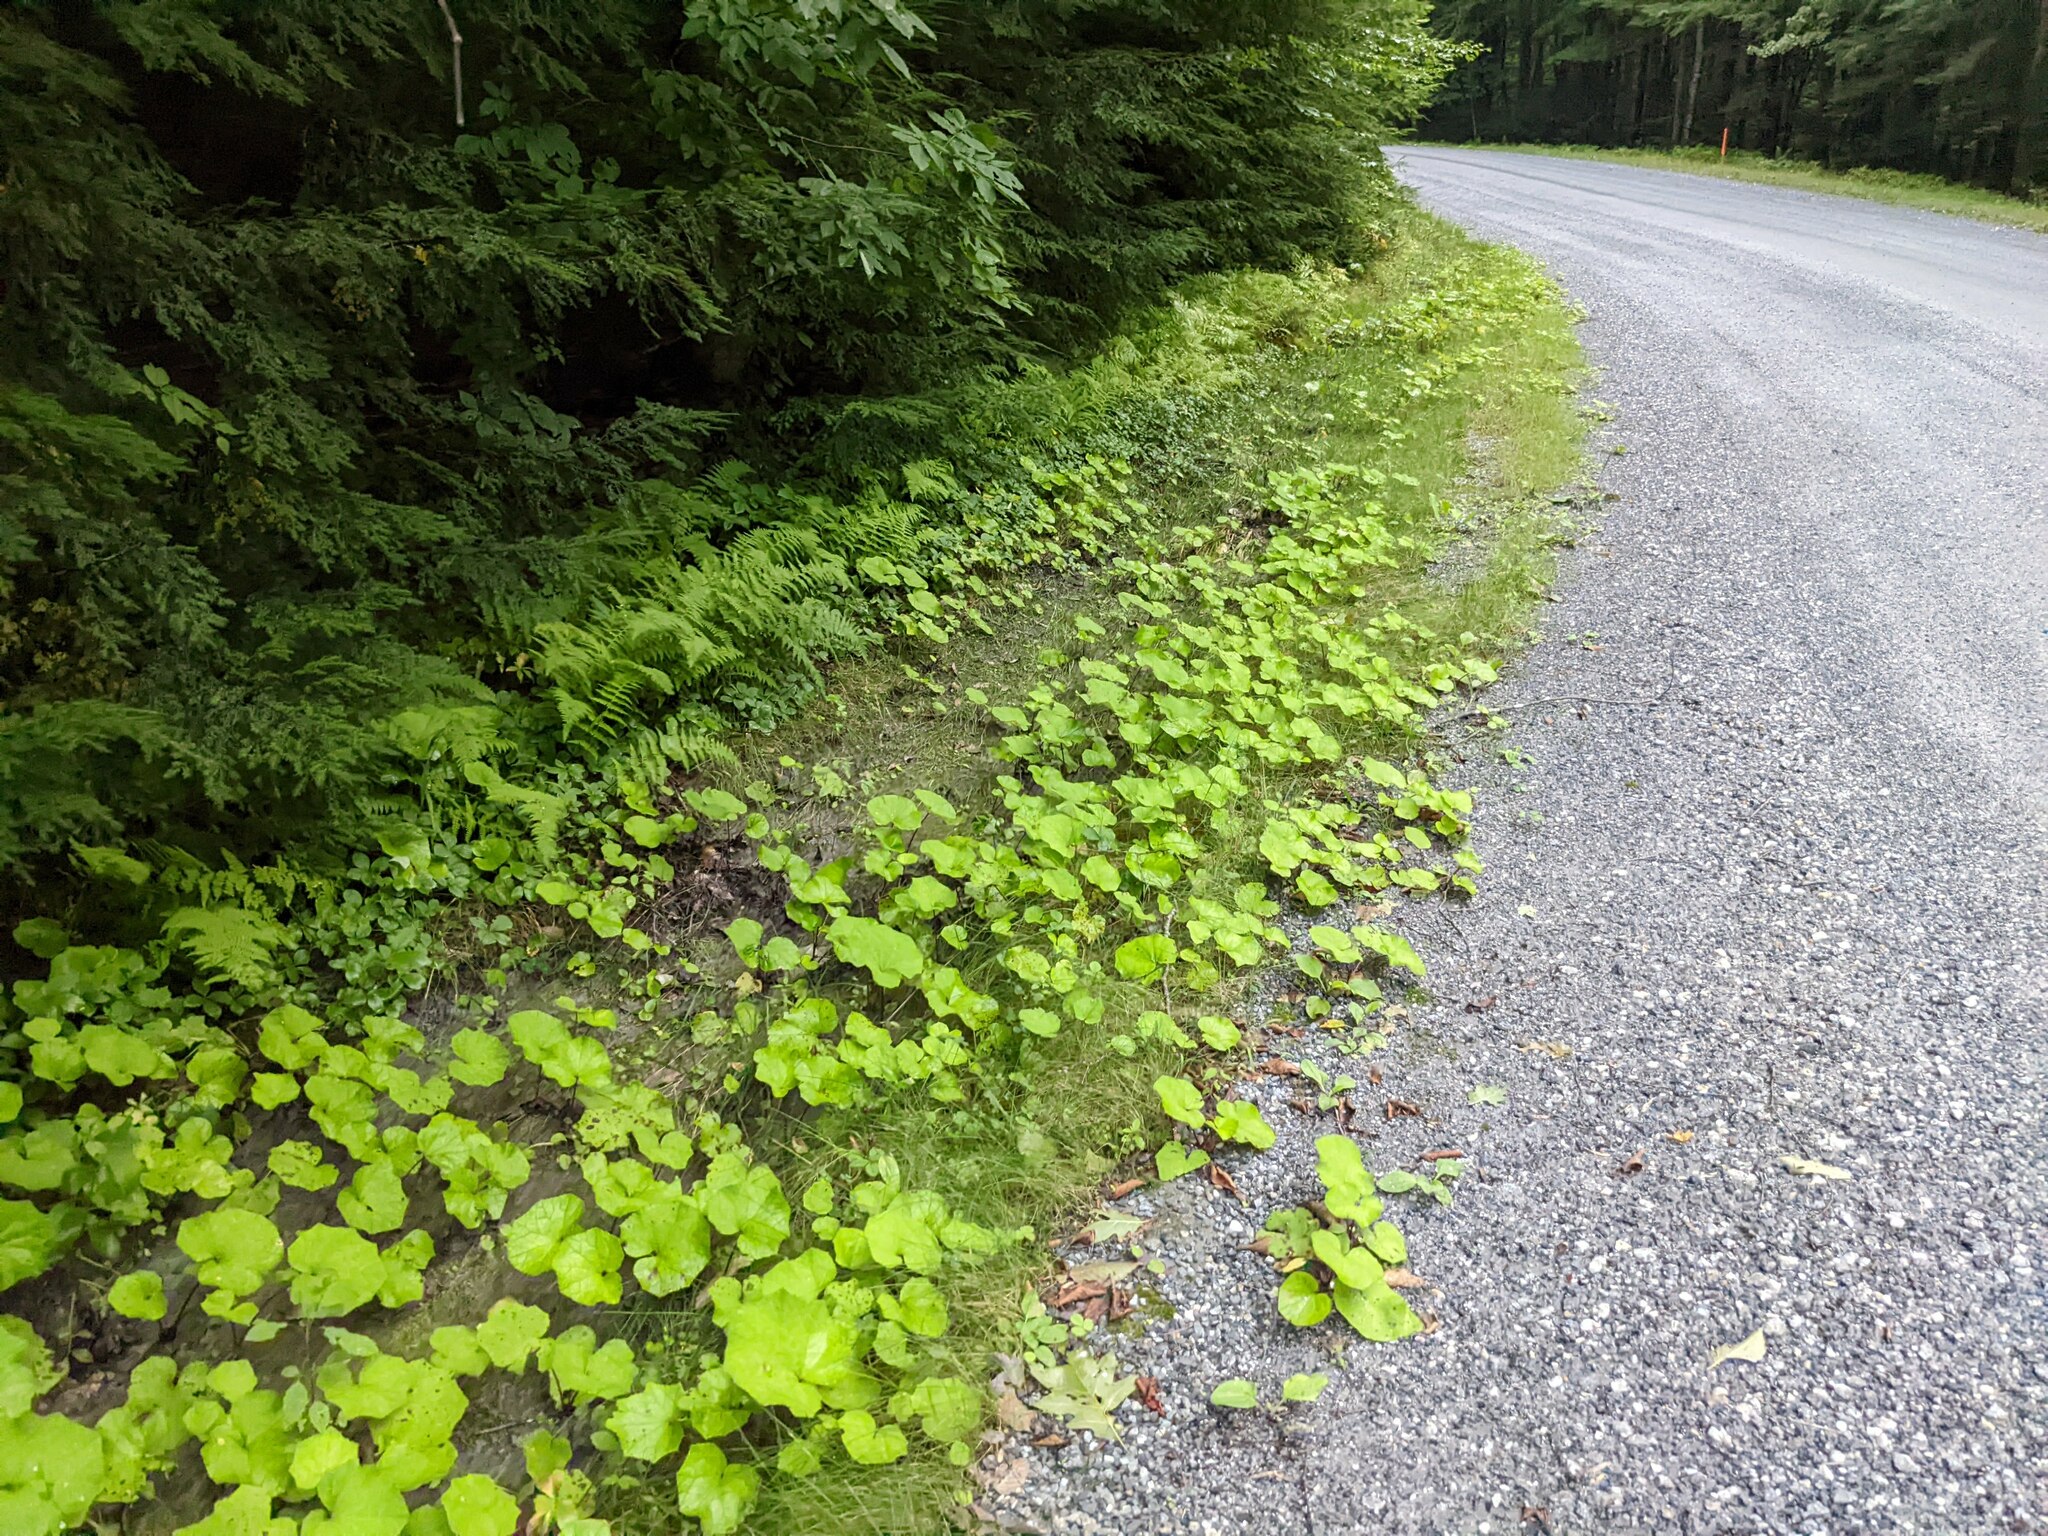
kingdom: Plantae
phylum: Tracheophyta
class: Magnoliopsida
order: Asterales
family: Asteraceae
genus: Tussilago
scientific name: Tussilago farfara
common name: Coltsfoot
